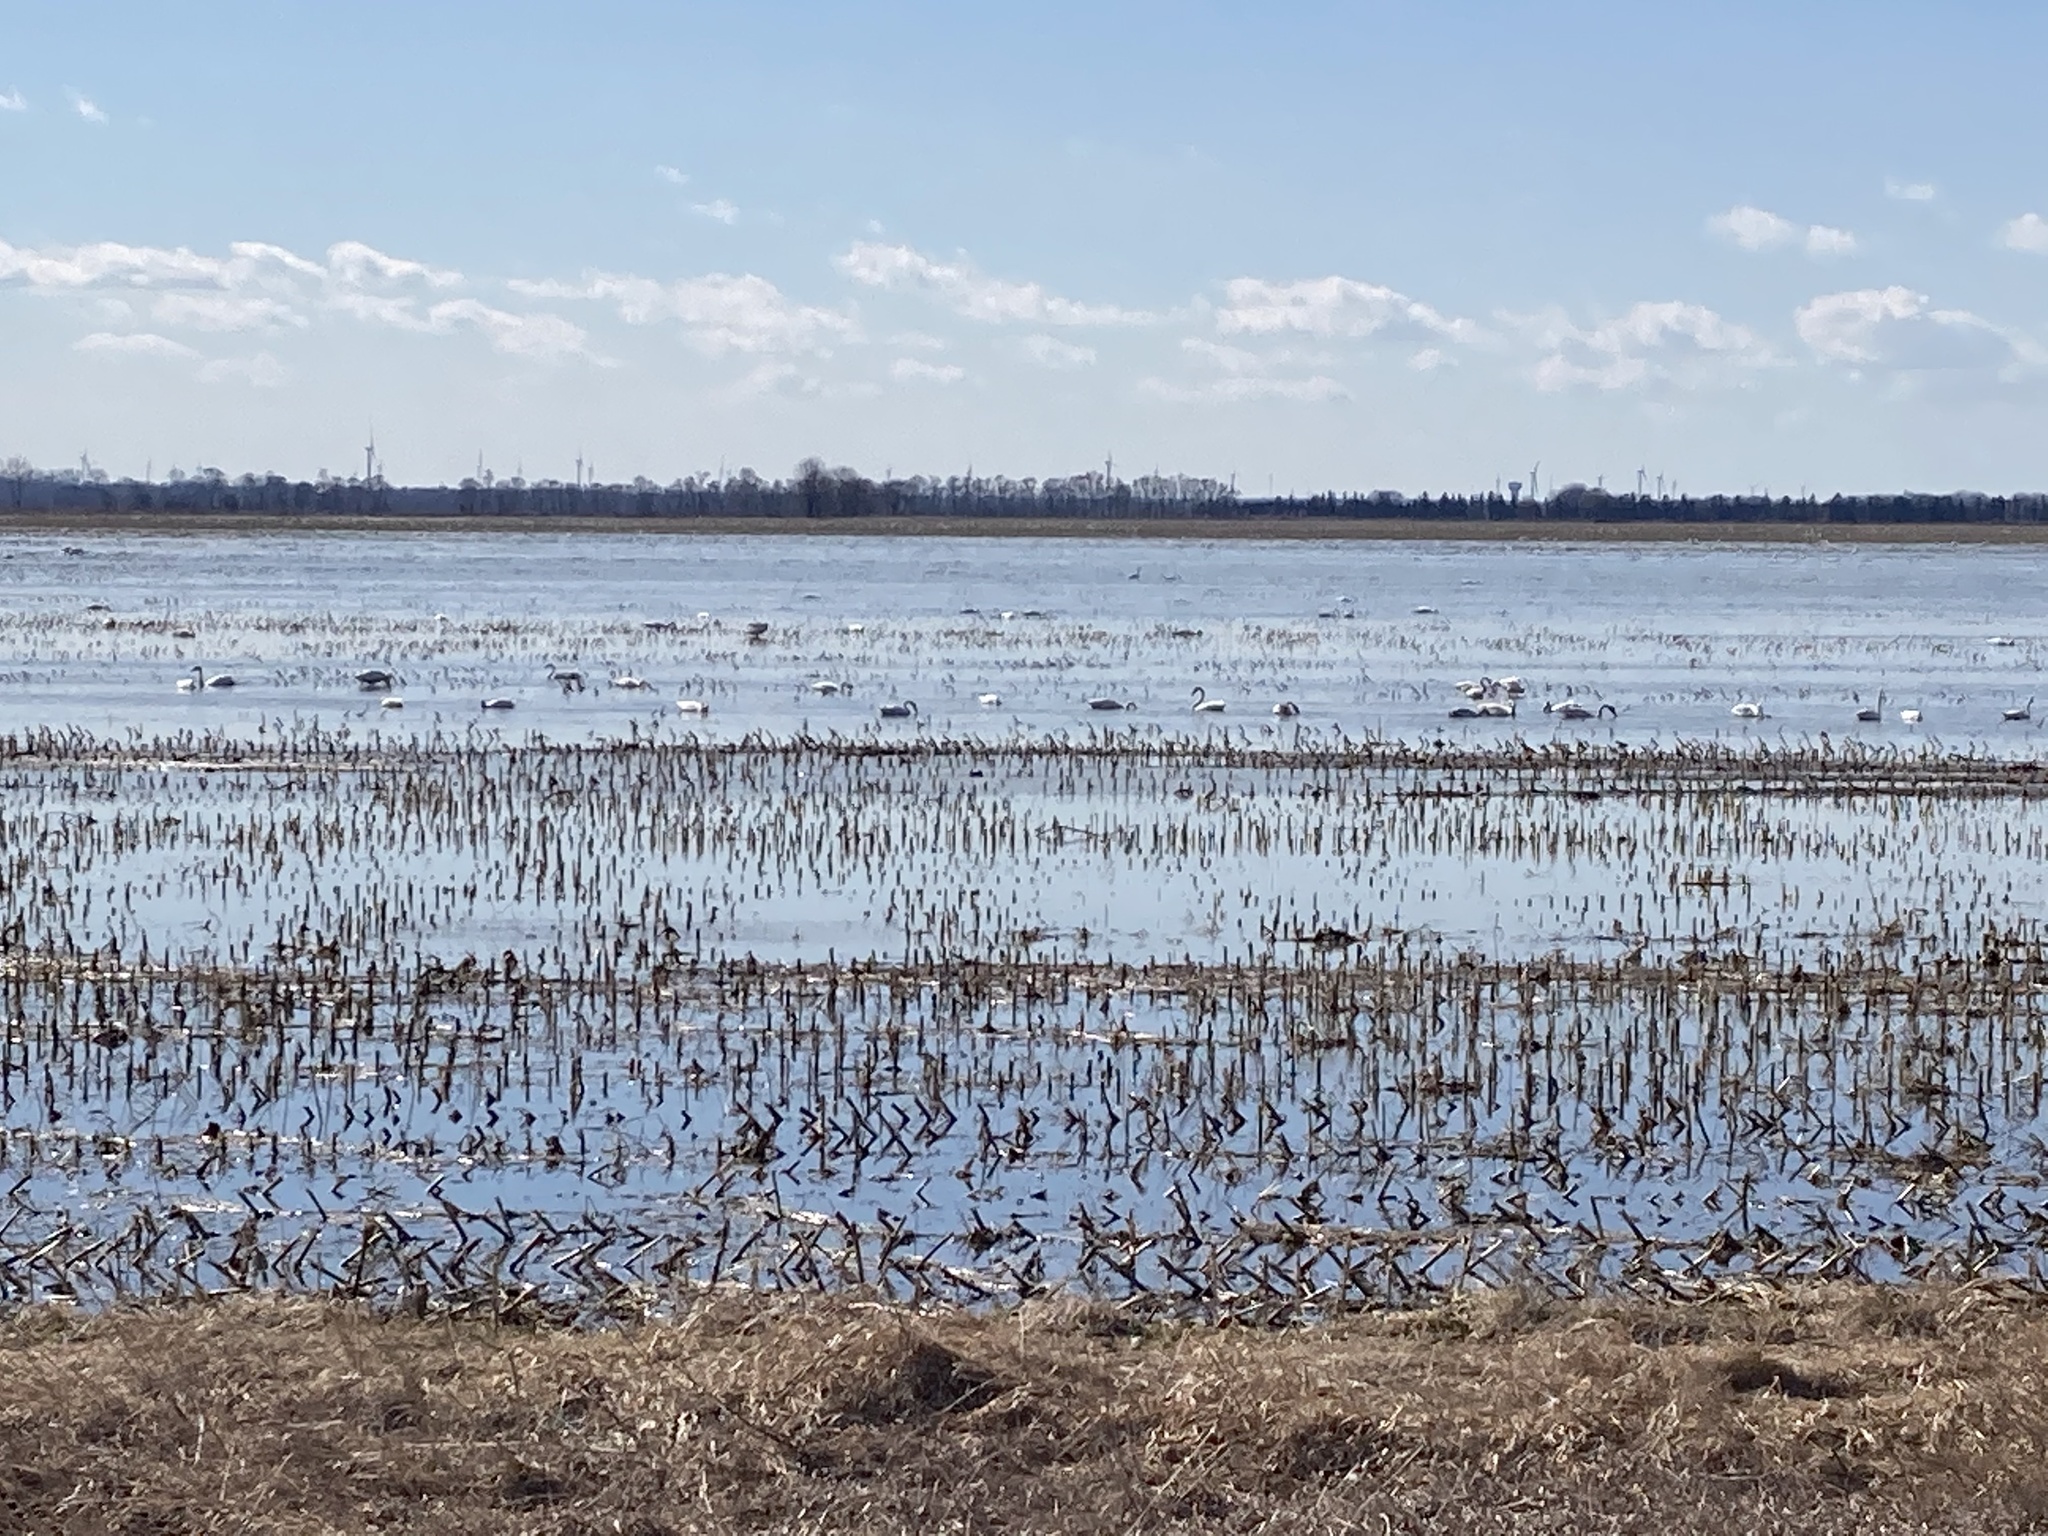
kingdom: Animalia
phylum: Chordata
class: Aves
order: Anseriformes
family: Anatidae
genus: Cygnus
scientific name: Cygnus columbianus
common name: Tundra swan
